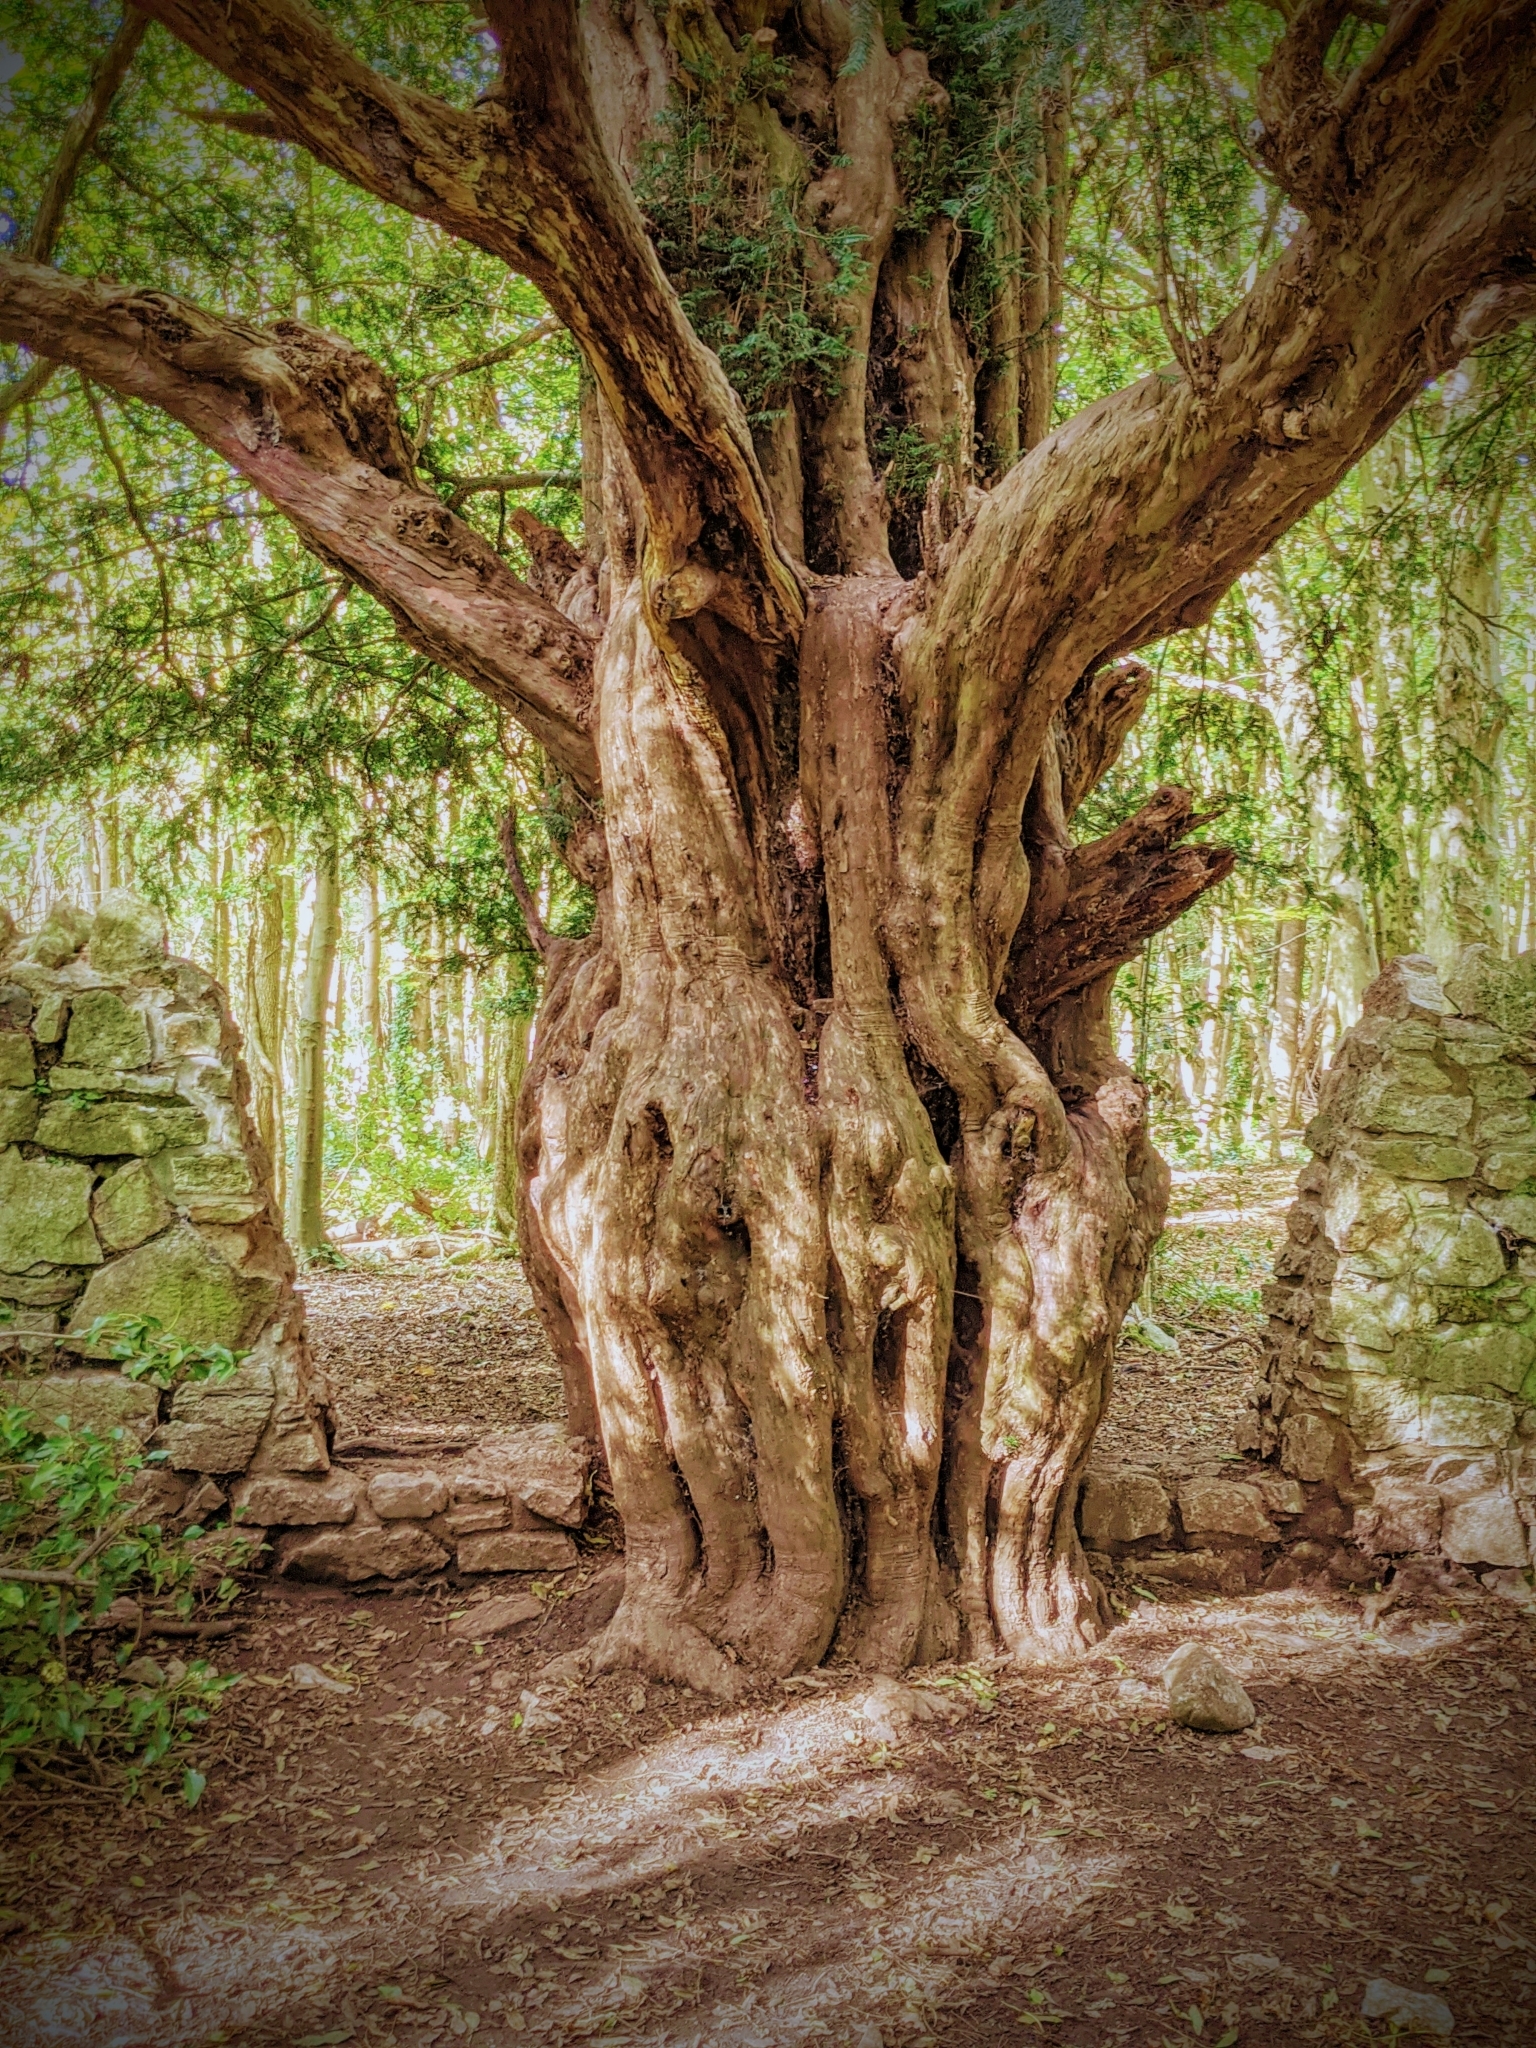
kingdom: Plantae
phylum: Tracheophyta
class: Pinopsida
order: Pinales
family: Taxaceae
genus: Taxus
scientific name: Taxus baccata
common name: Yew
